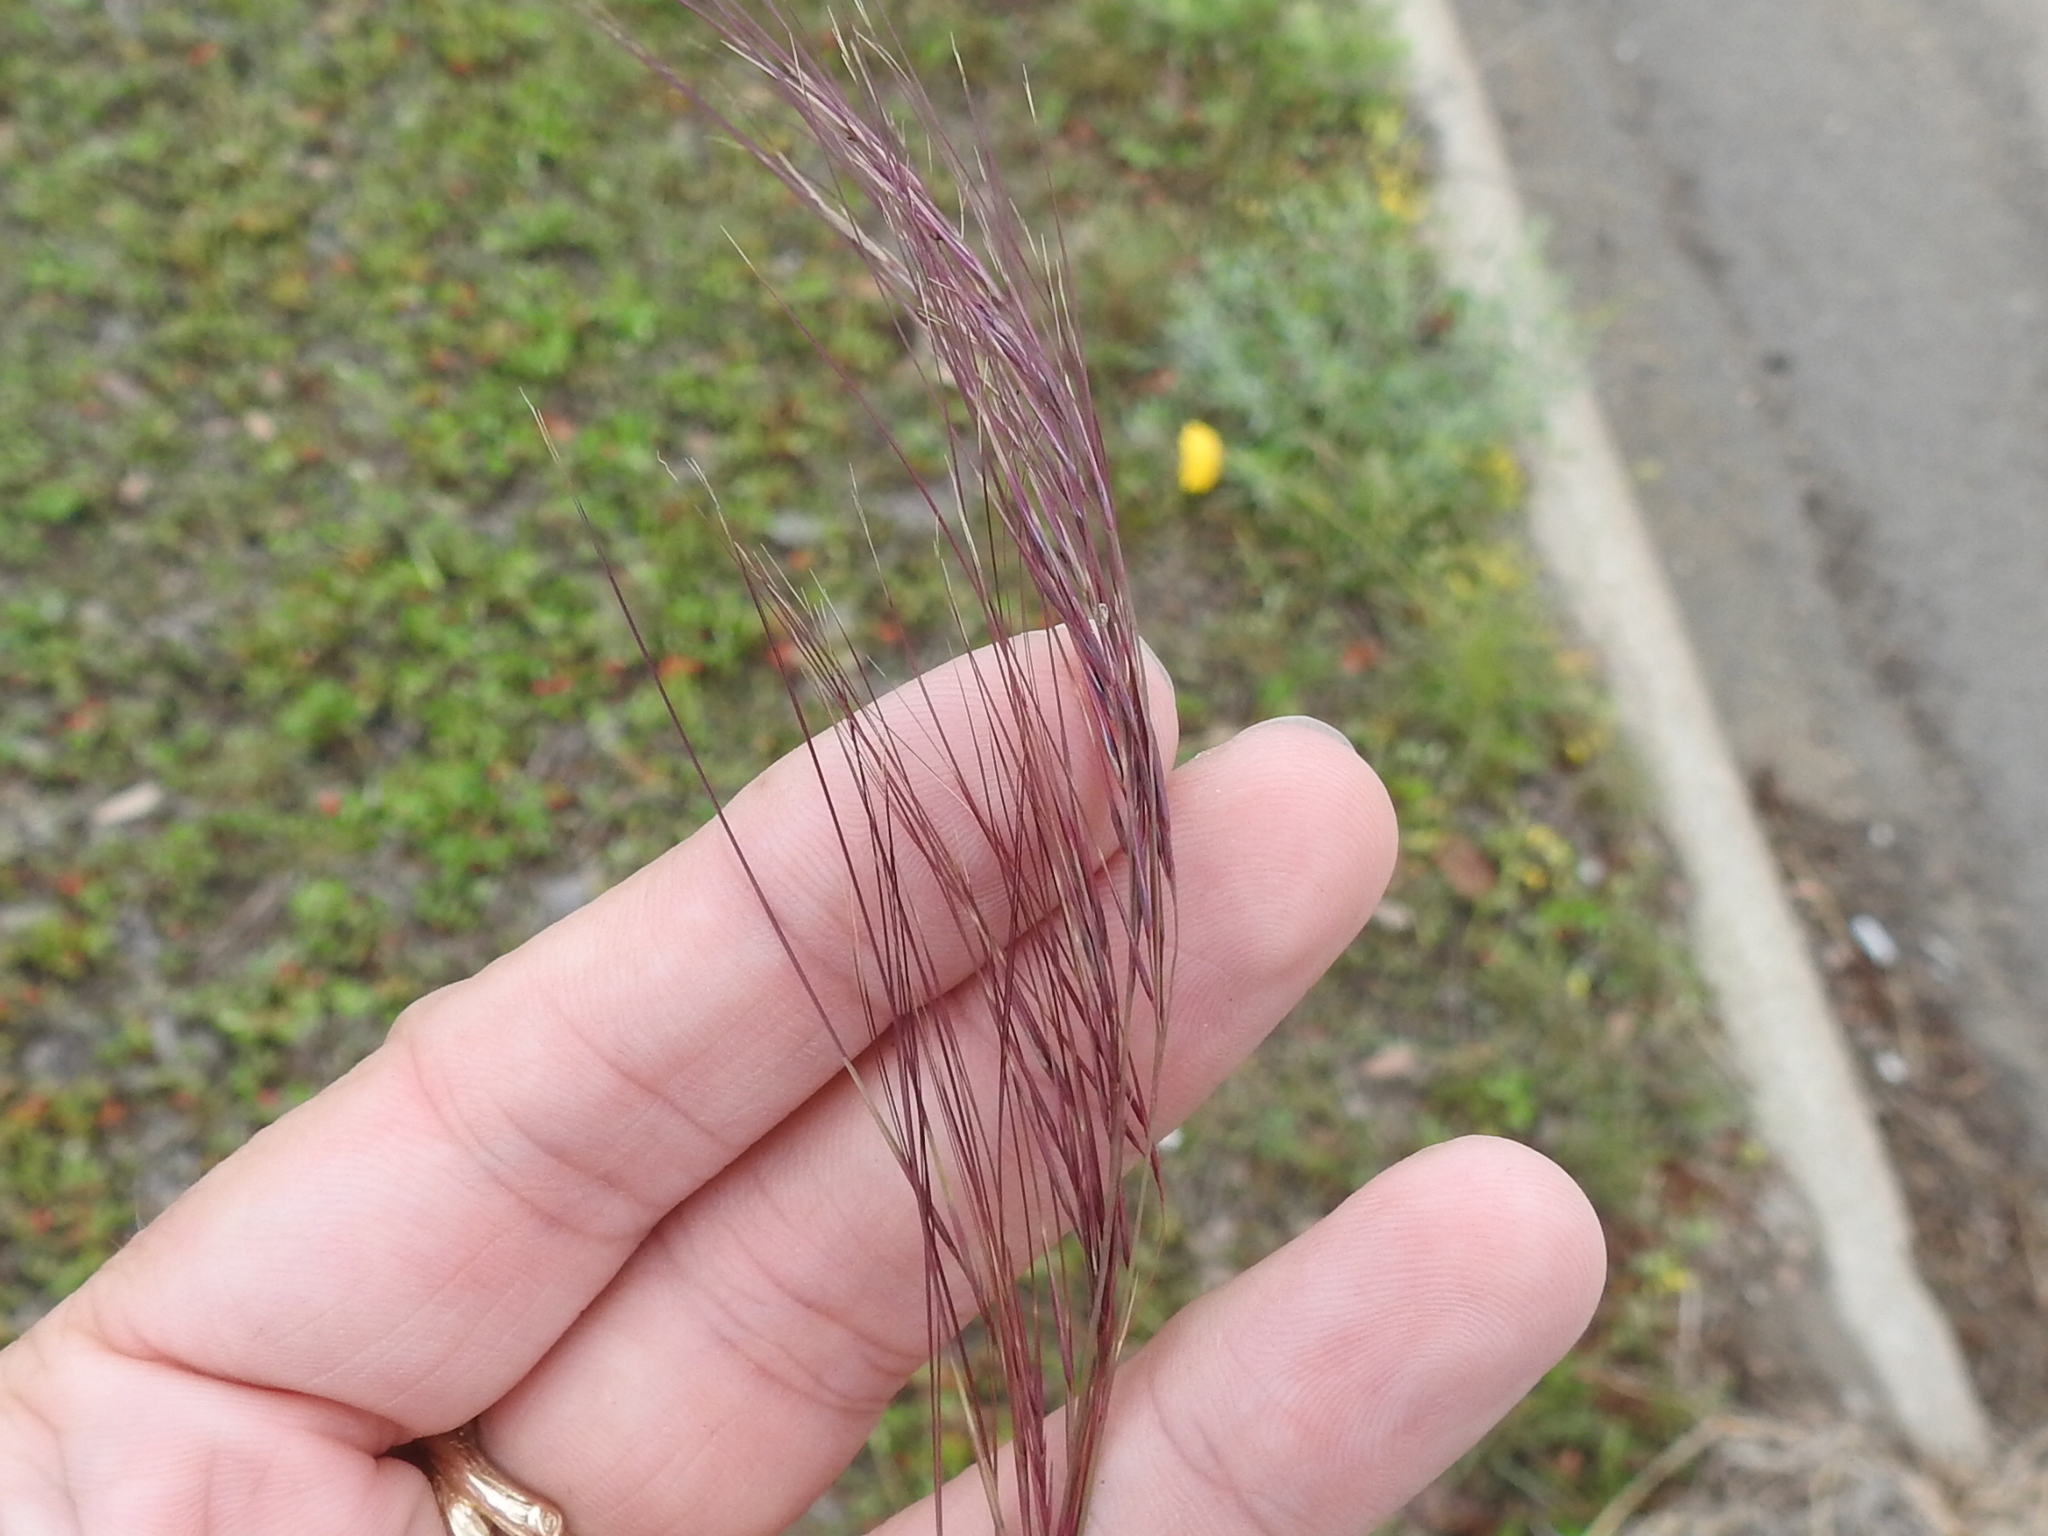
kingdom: Plantae
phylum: Tracheophyta
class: Liliopsida
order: Poales
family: Poaceae
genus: Aristida
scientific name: Aristida purpurea
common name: Purple threeawn
